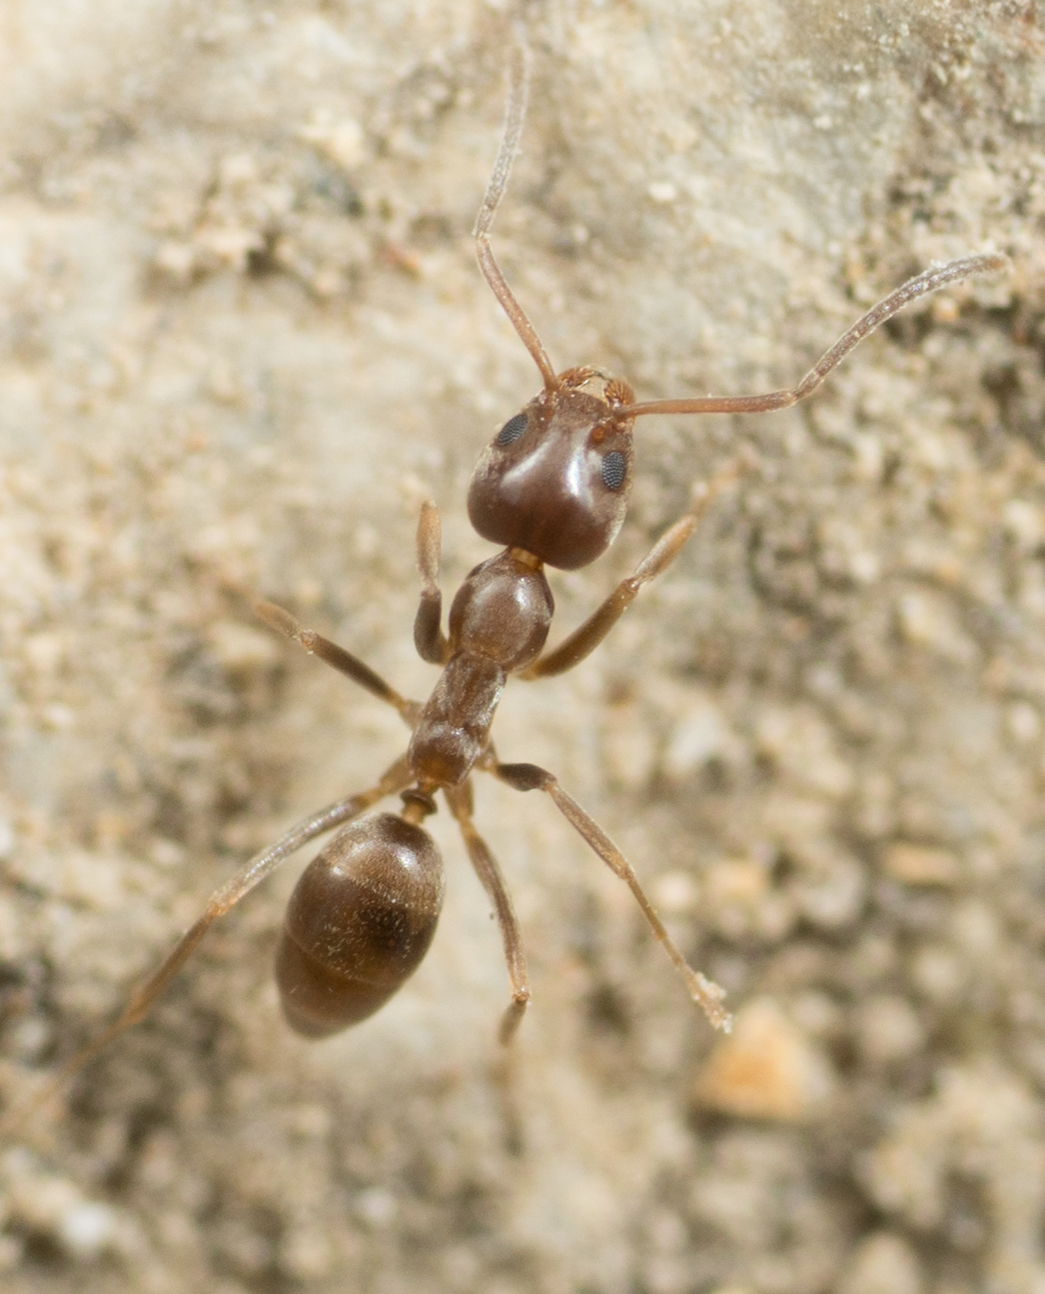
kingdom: Animalia
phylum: Arthropoda
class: Insecta
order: Hymenoptera
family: Formicidae
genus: Linepithema
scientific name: Linepithema humile
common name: Argentine ant
